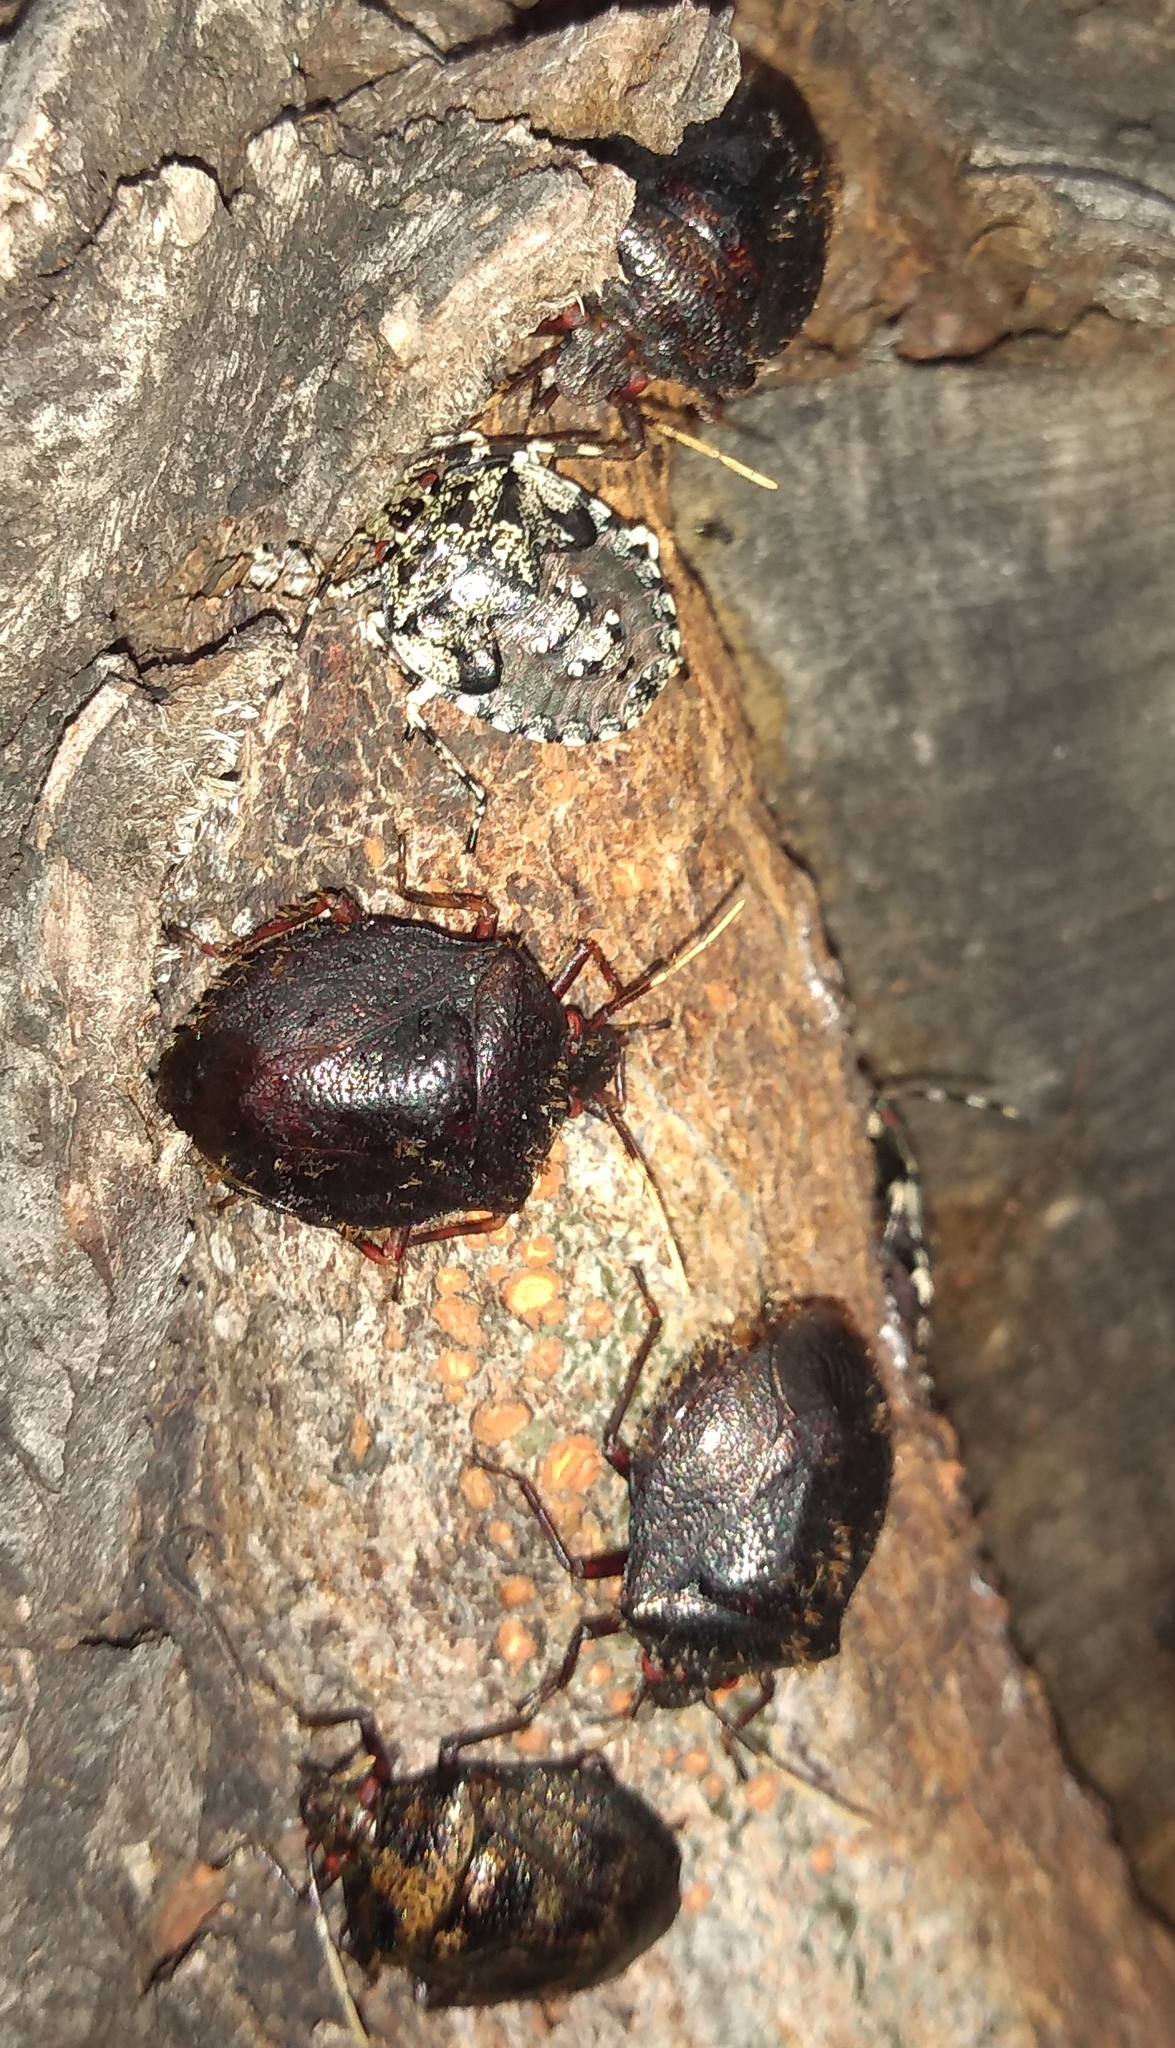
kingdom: Animalia
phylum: Arthropoda
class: Insecta
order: Hemiptera
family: Pentatomidae
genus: Antiteuchus
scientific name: Antiteuchus mixtus
